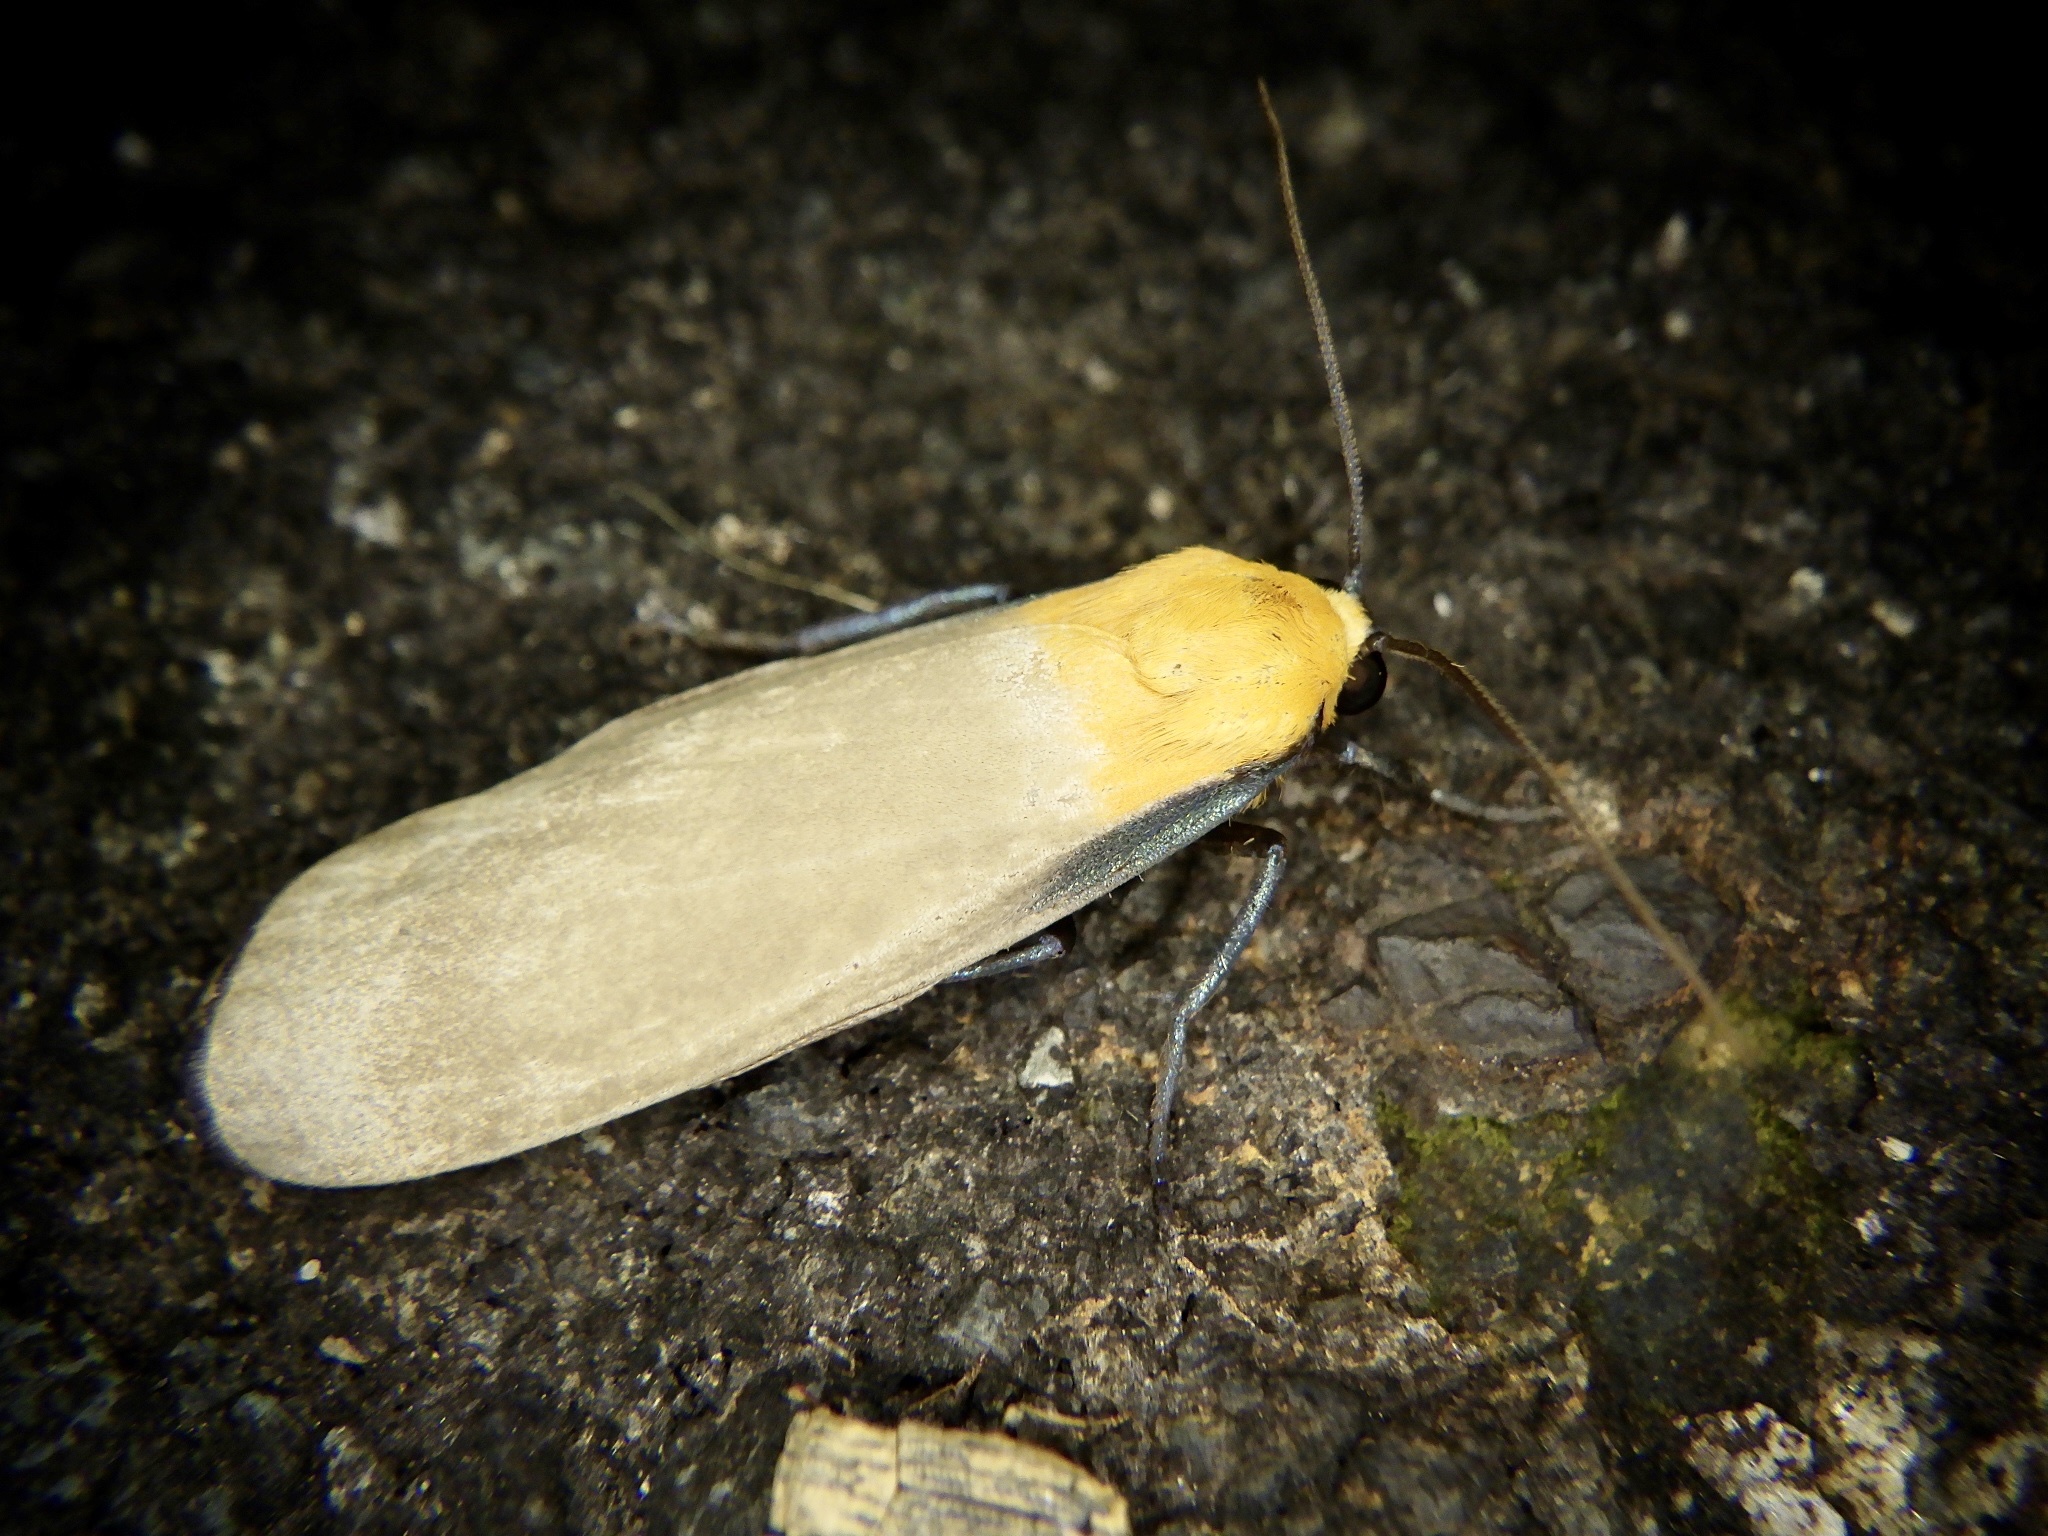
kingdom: Animalia
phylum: Arthropoda
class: Insecta
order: Lepidoptera
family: Erebidae
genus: Lithosia
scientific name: Lithosia quadra
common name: Four-spotted footman
